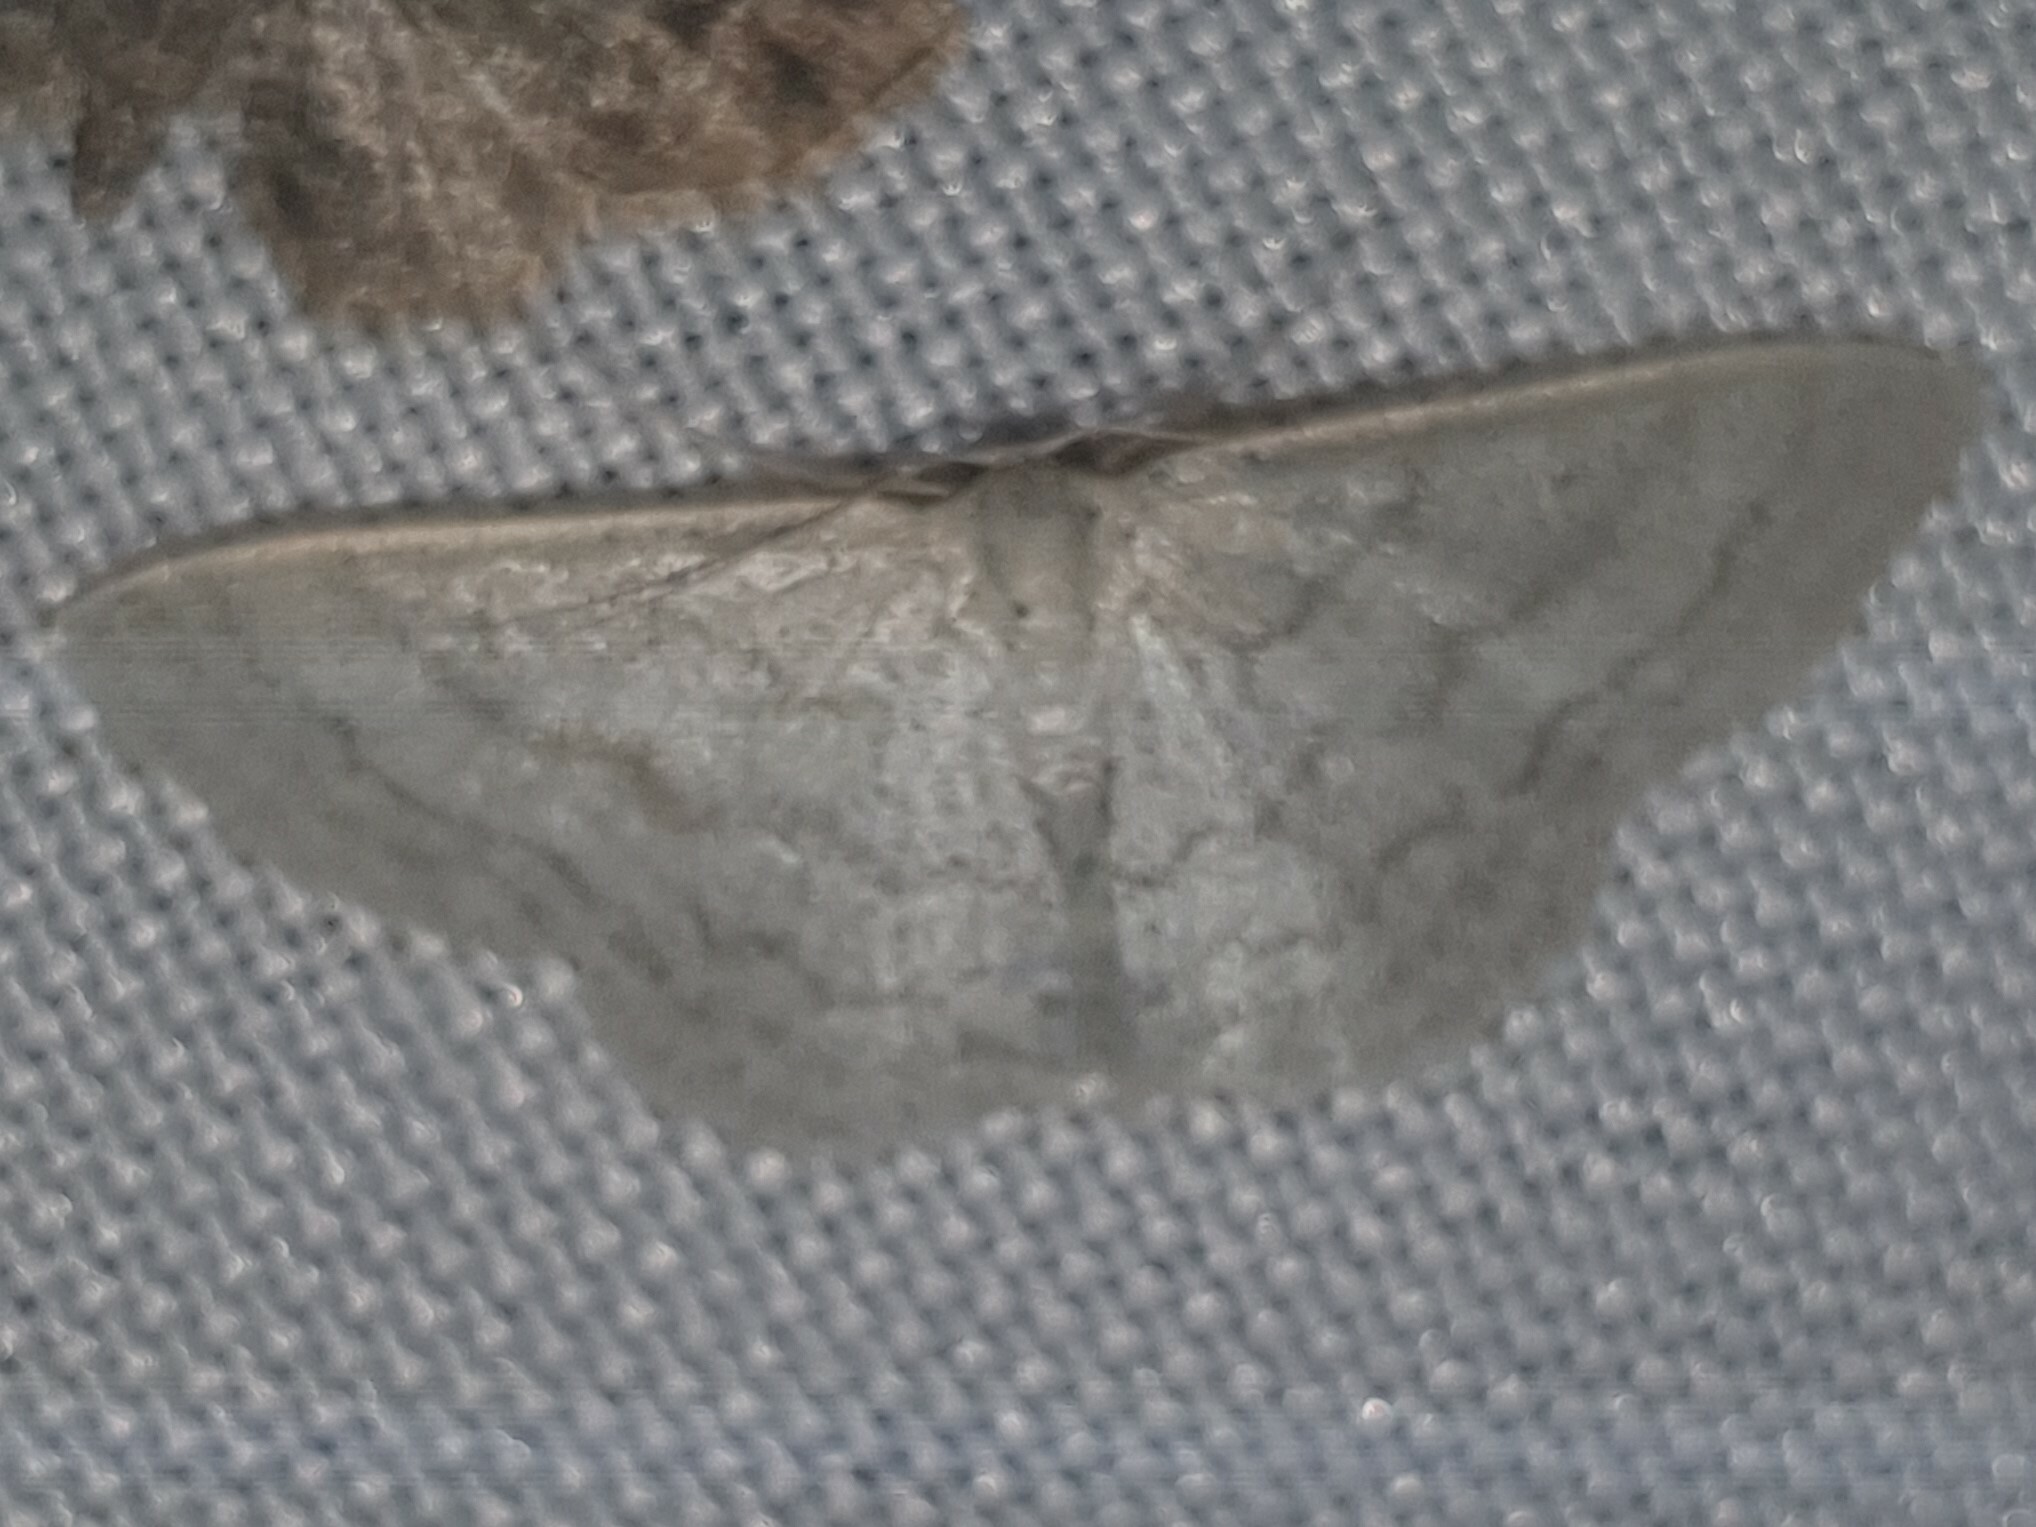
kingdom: Animalia
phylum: Arthropoda
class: Insecta
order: Lepidoptera
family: Geometridae
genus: Idaea
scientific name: Idaea subsericeata
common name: Satin wave
